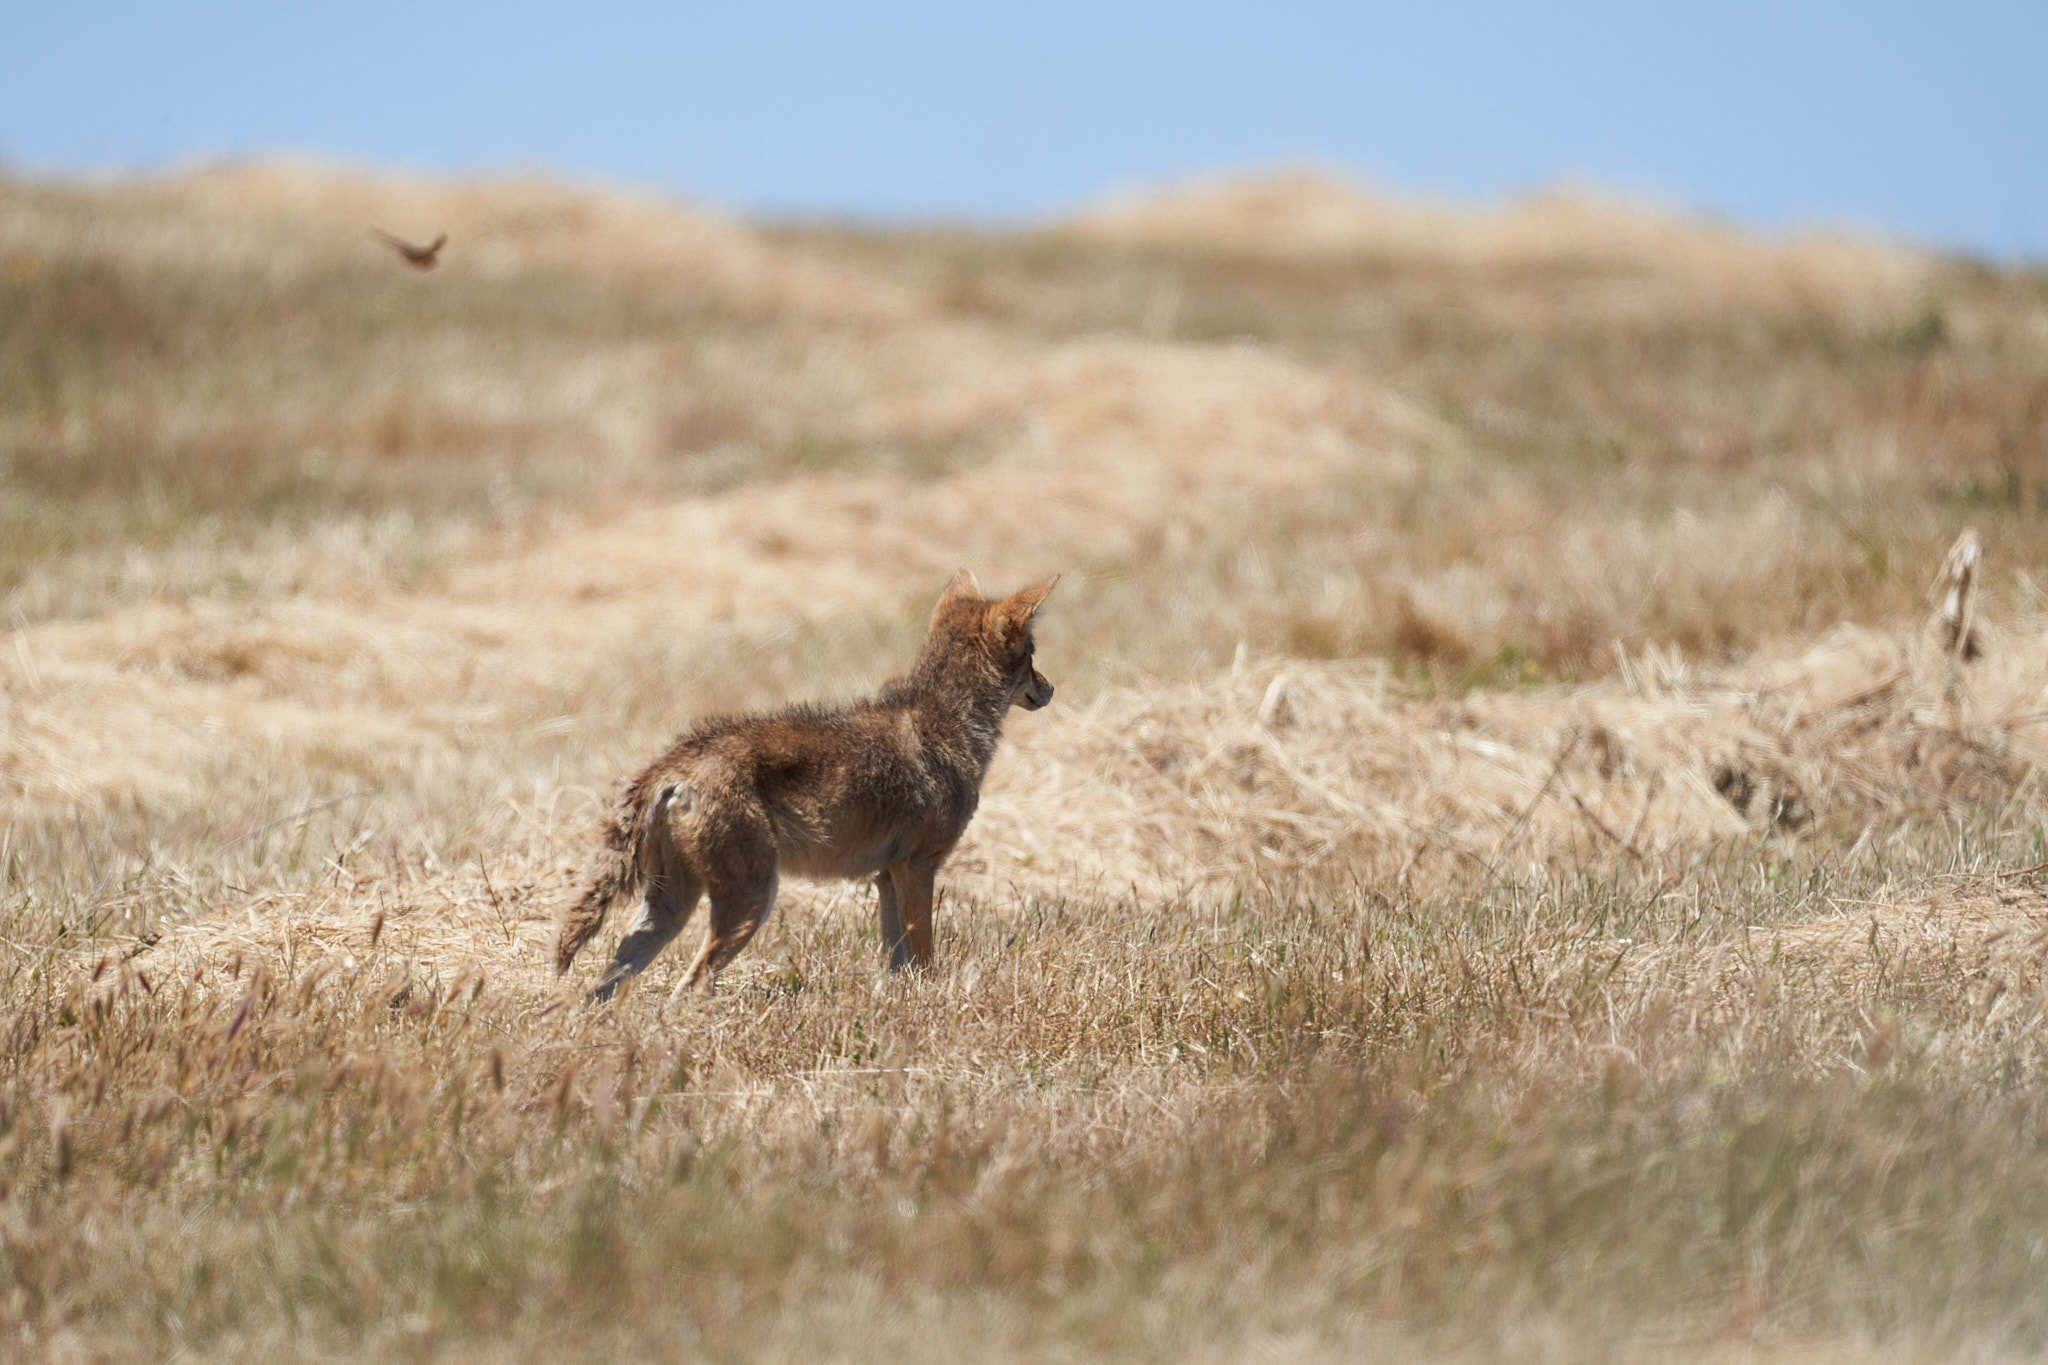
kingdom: Animalia
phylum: Chordata
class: Mammalia
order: Carnivora
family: Canidae
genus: Canis
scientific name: Canis latrans
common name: Coyote
